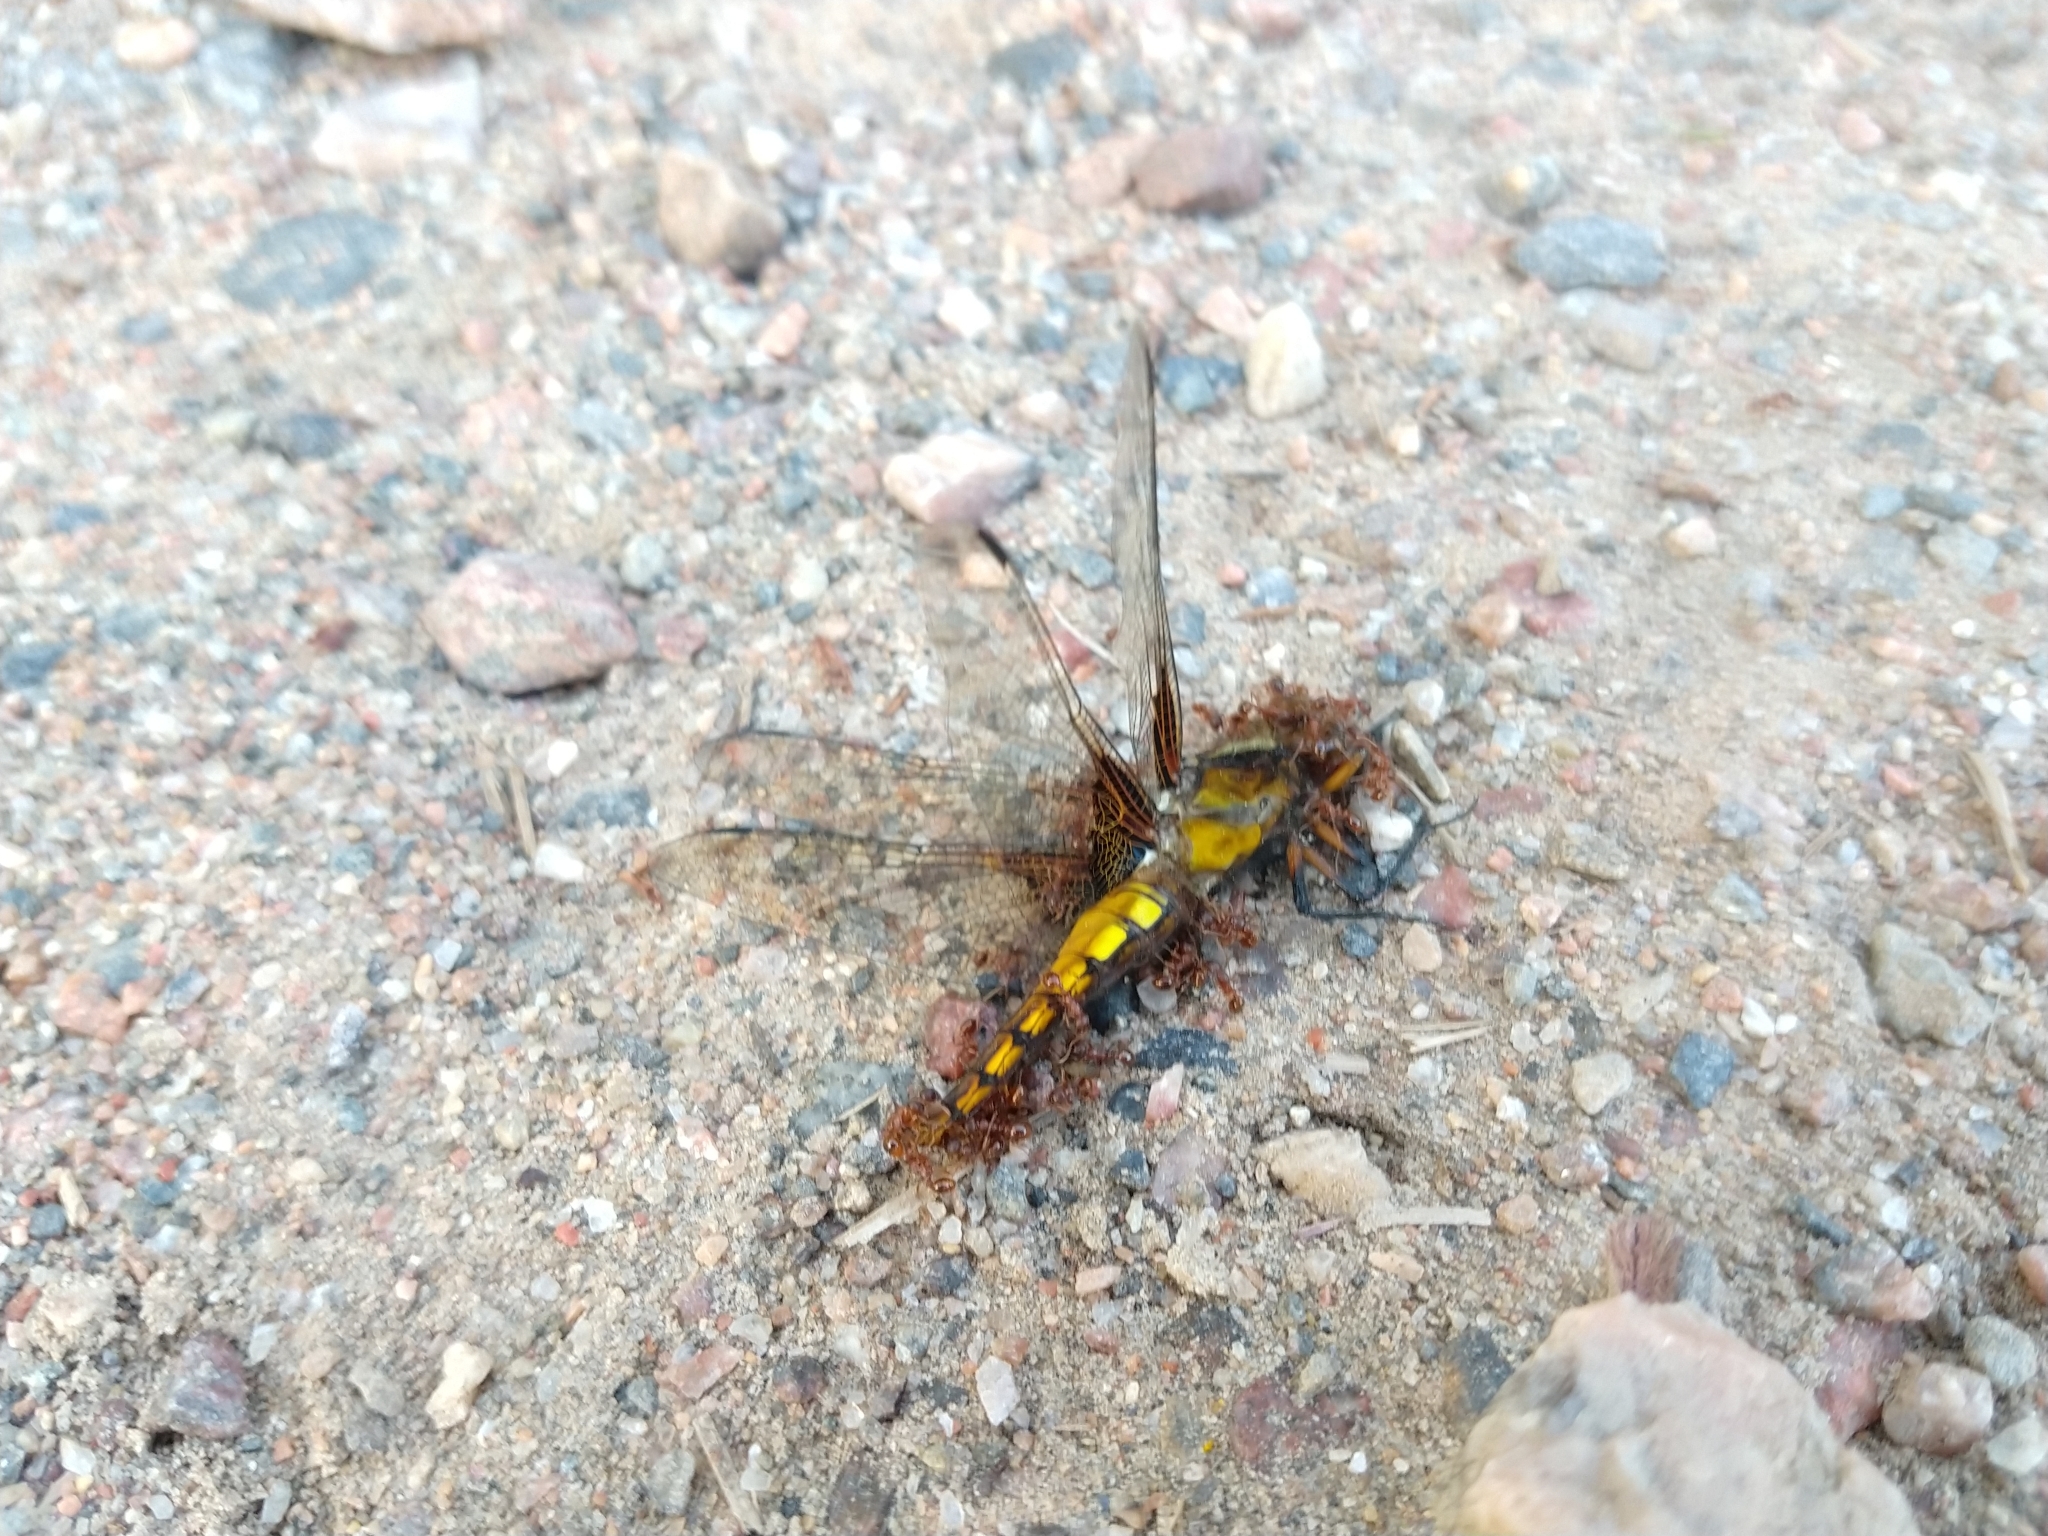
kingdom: Animalia
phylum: Arthropoda
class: Insecta
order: Odonata
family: Libellulidae
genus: Libellula
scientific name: Libellula depressa
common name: Broad-bodied chaser
